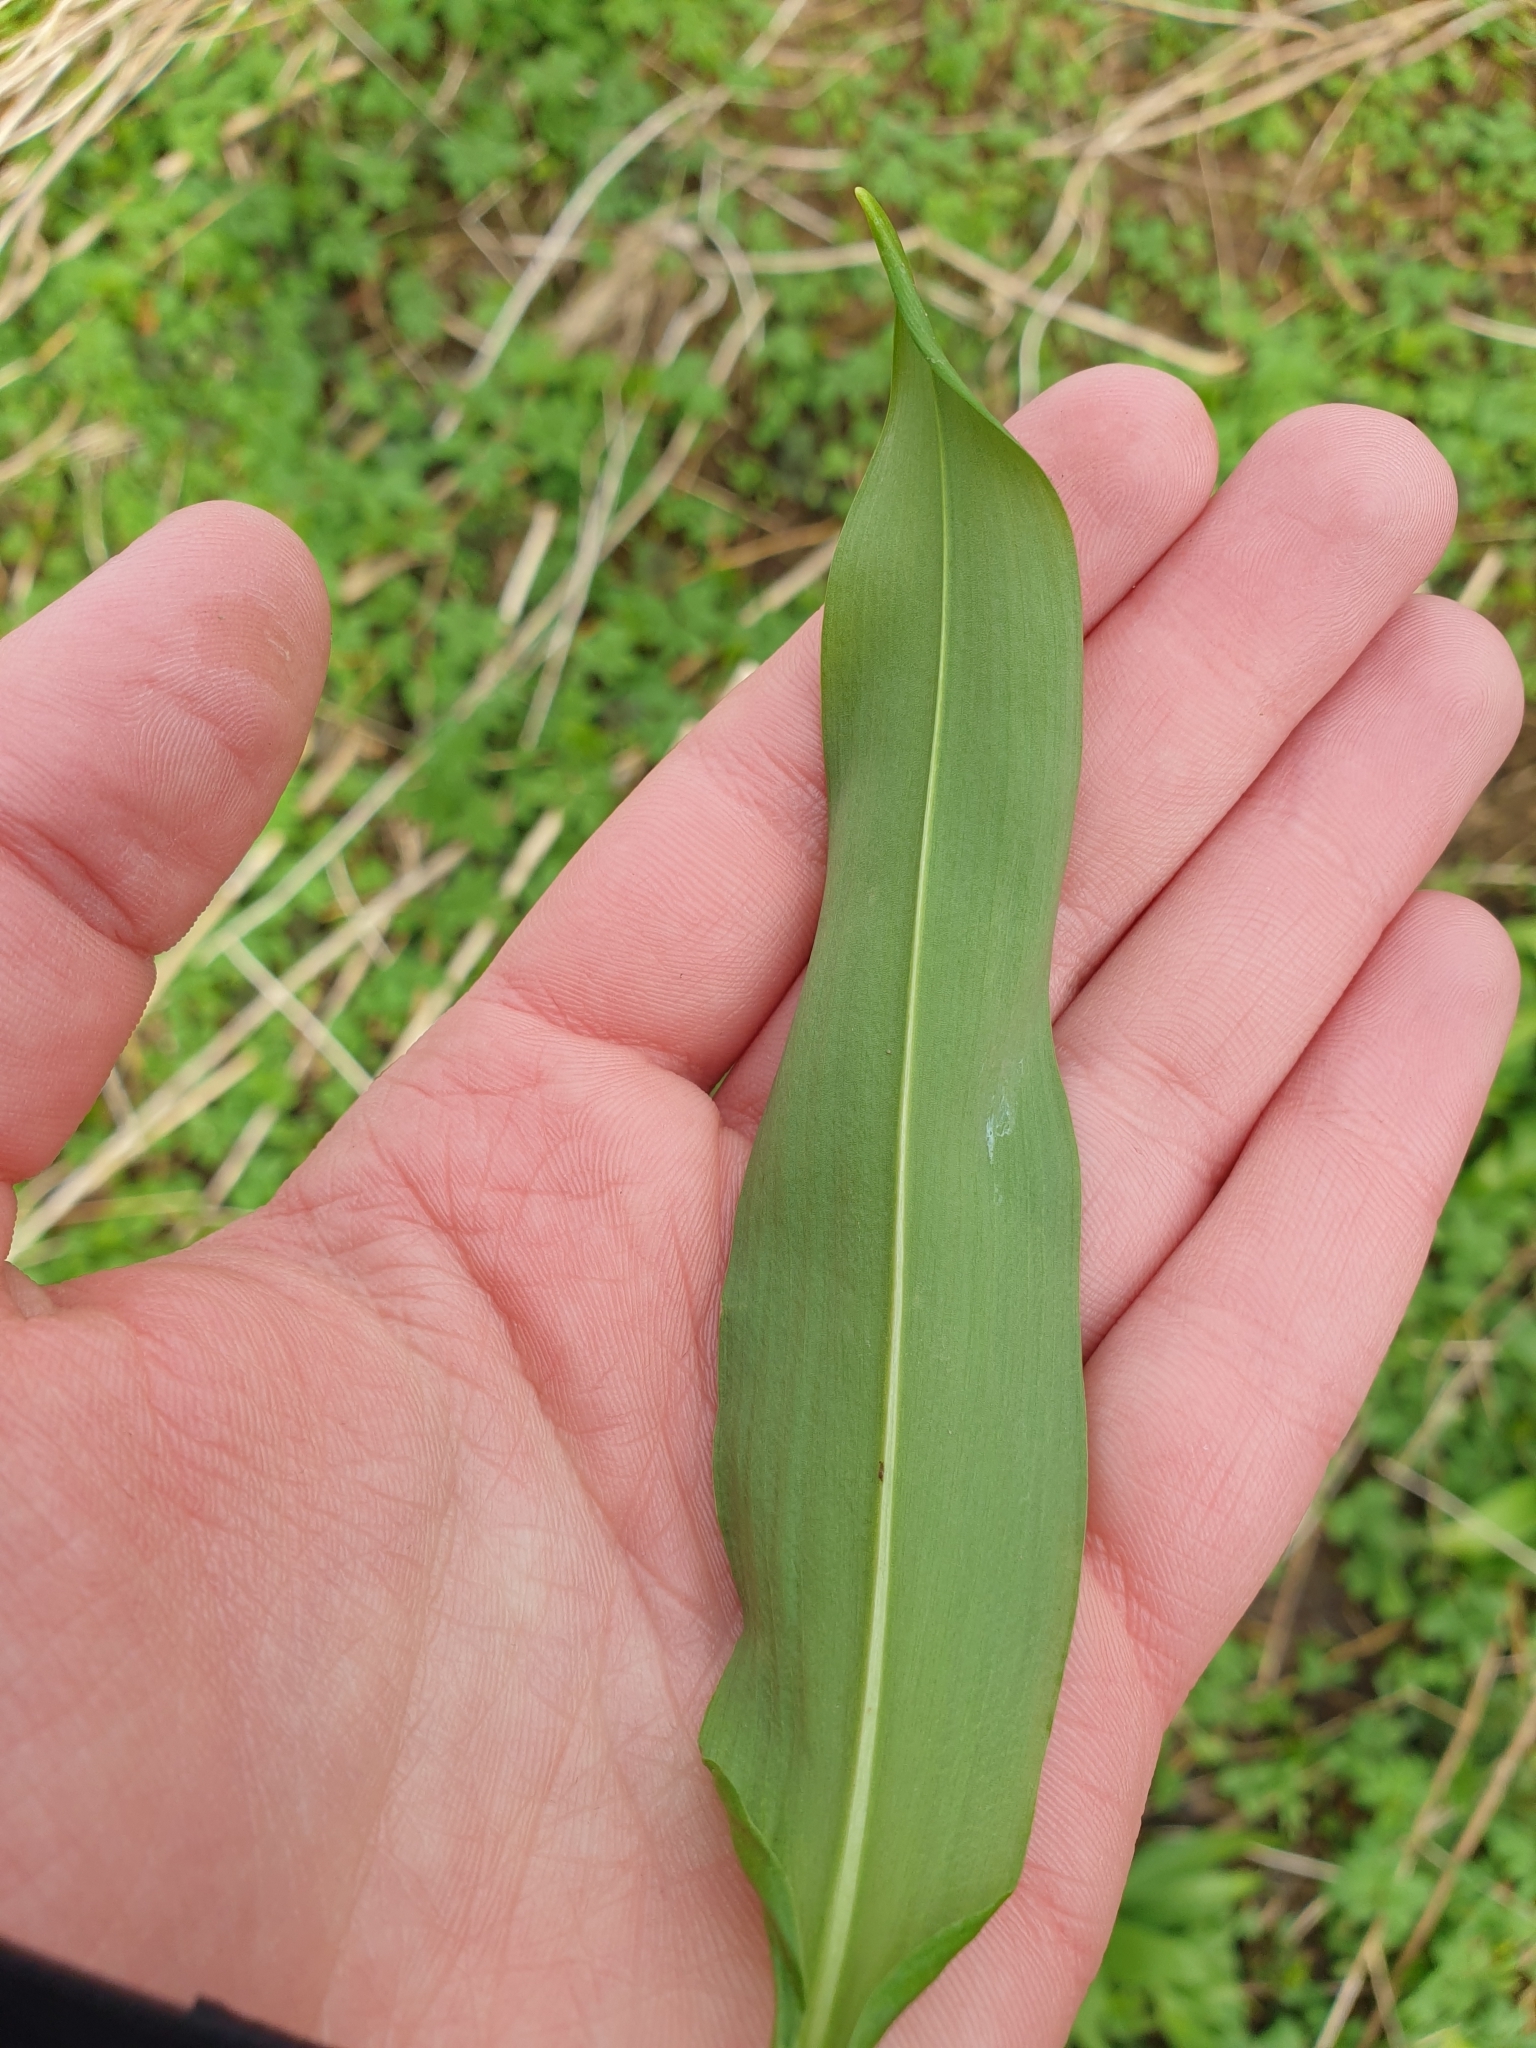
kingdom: Plantae
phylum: Tracheophyta
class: Liliopsida
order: Asparagales
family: Amaryllidaceae
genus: Allium
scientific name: Allium ursinum
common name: Ramsons
